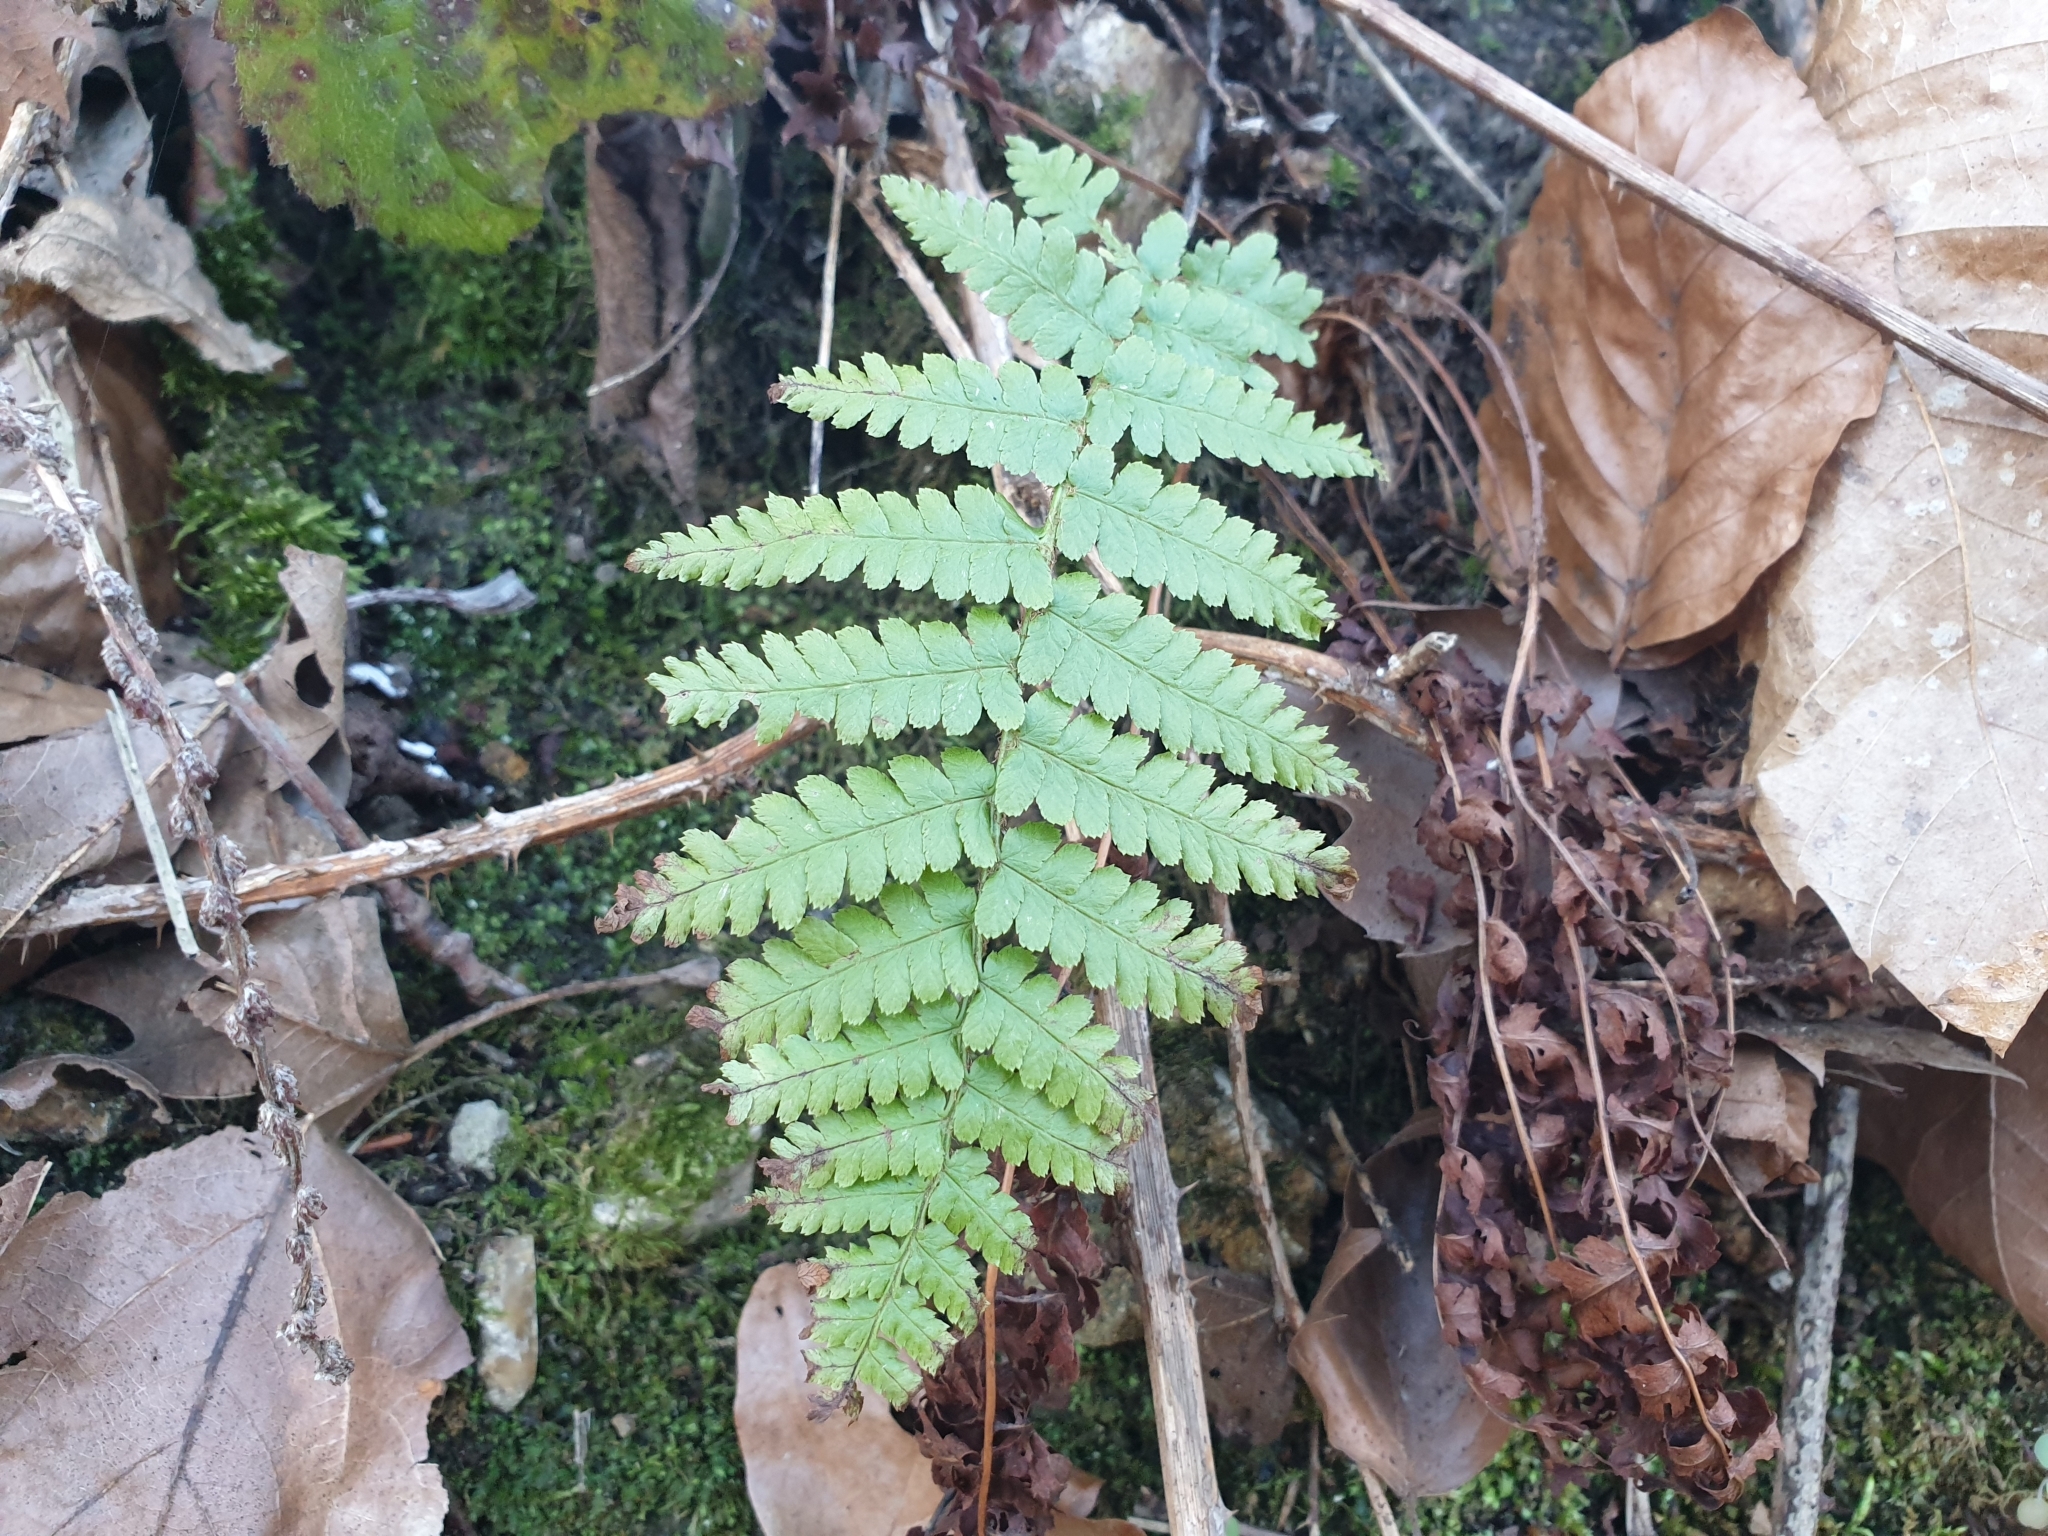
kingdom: Plantae
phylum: Tracheophyta
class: Polypodiopsida
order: Polypodiales
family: Dryopteridaceae
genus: Dryopteris
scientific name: Dryopteris filix-mas
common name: Male fern
